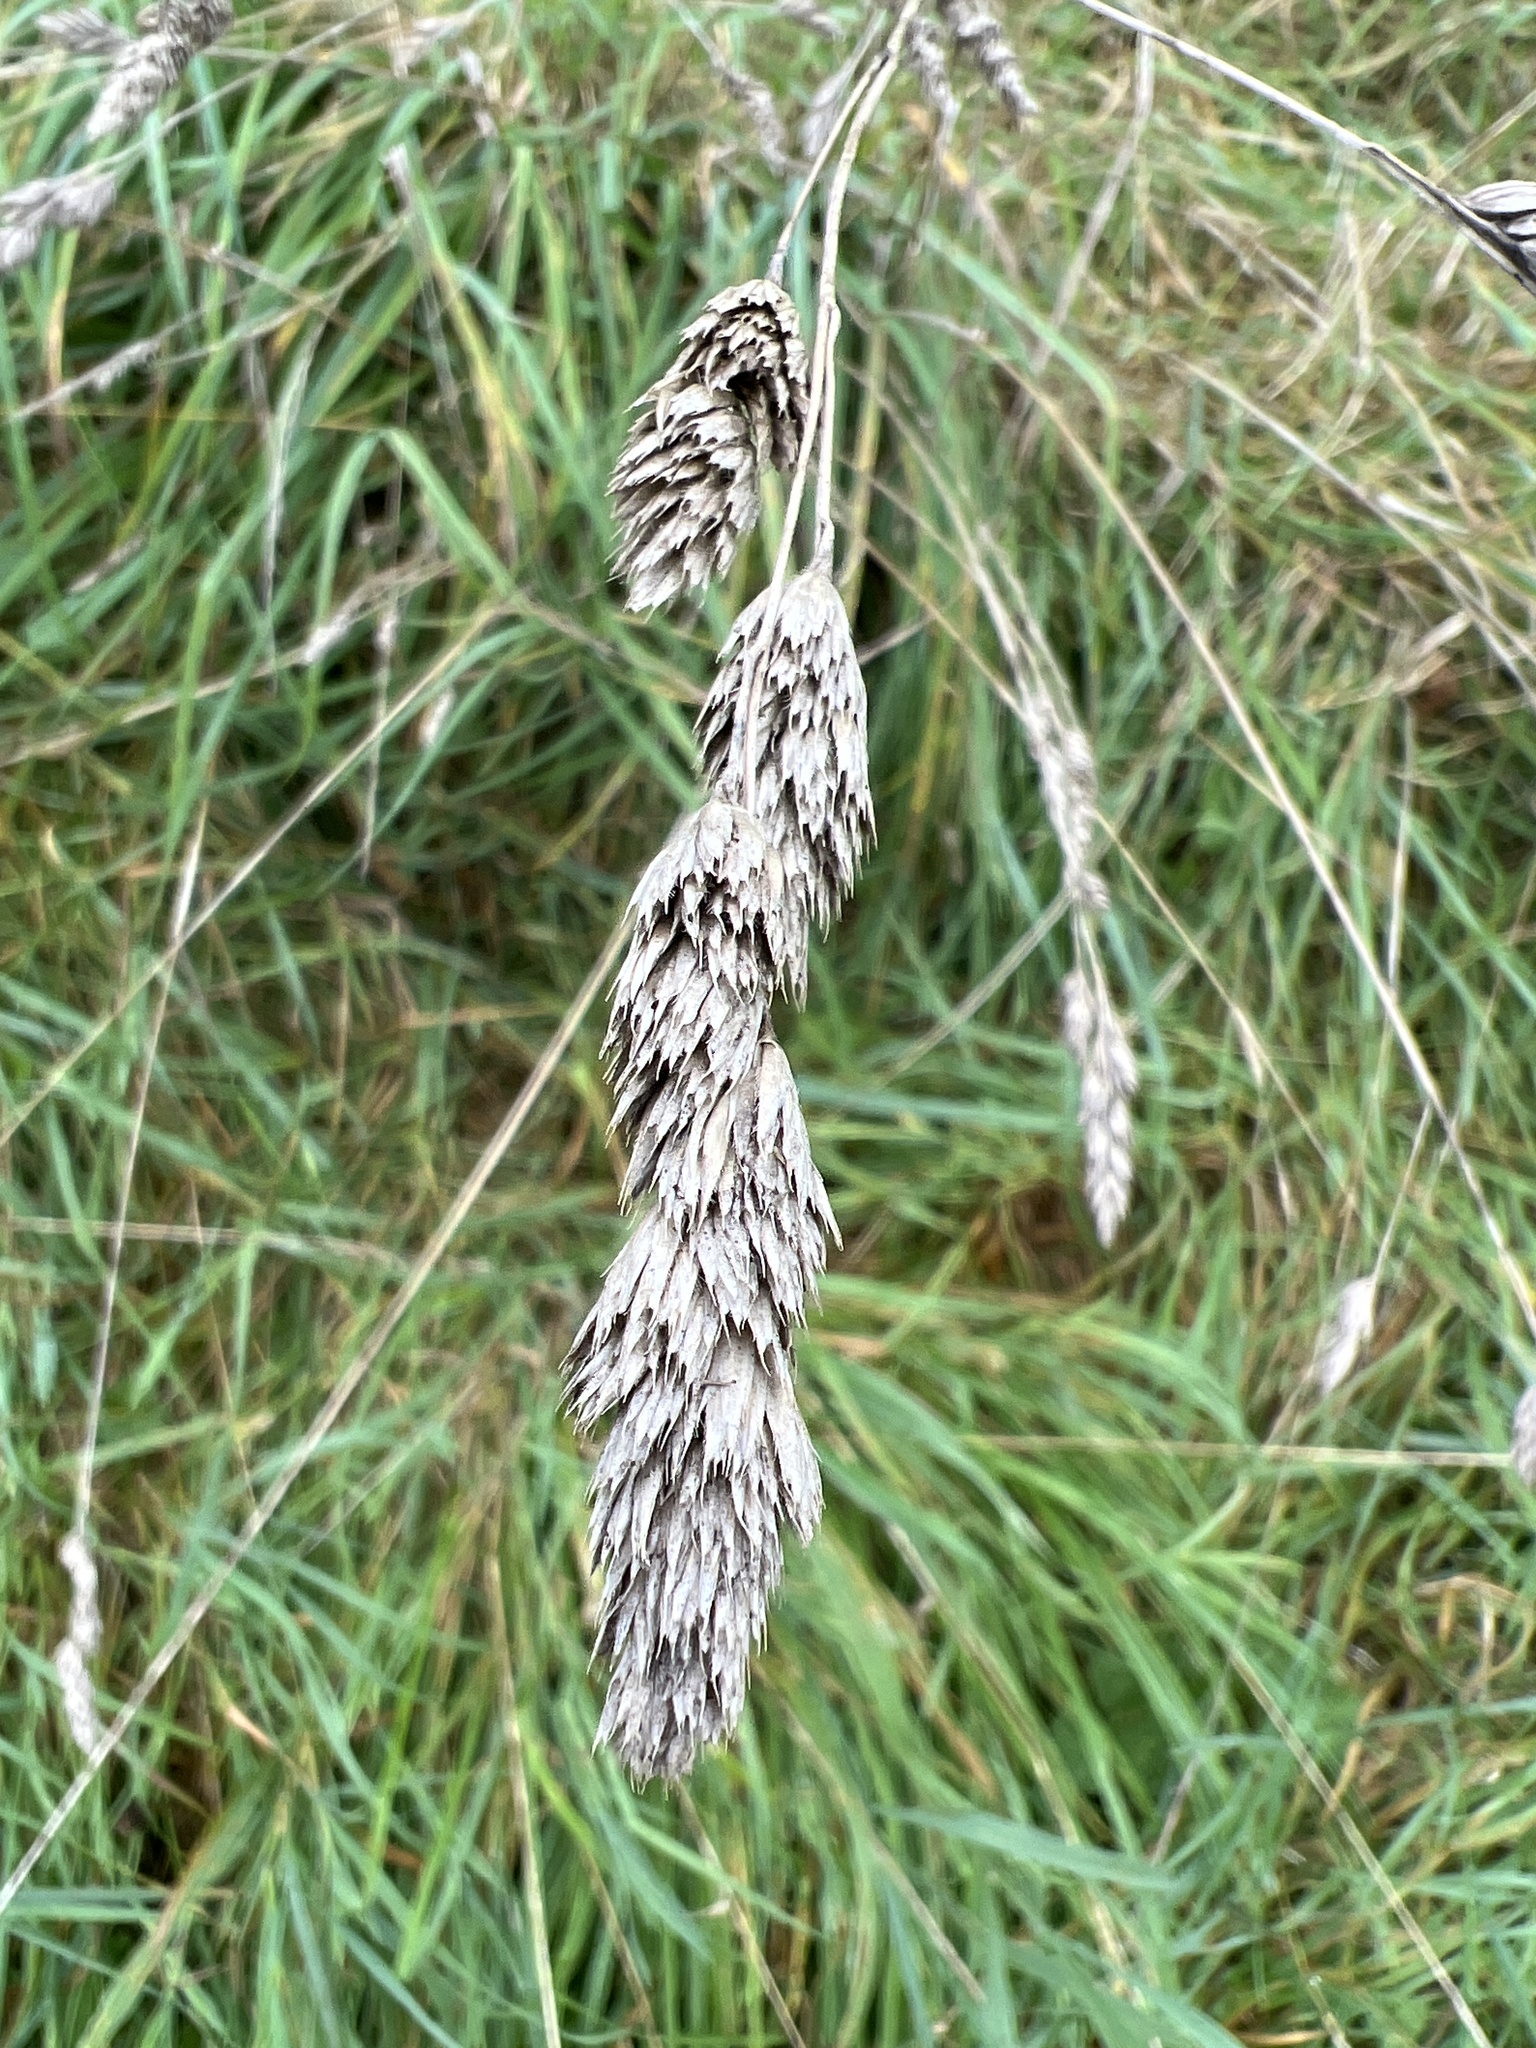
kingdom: Plantae
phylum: Tracheophyta
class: Liliopsida
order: Poales
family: Poaceae
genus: Dactylis
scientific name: Dactylis glomerata
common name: Orchardgrass
